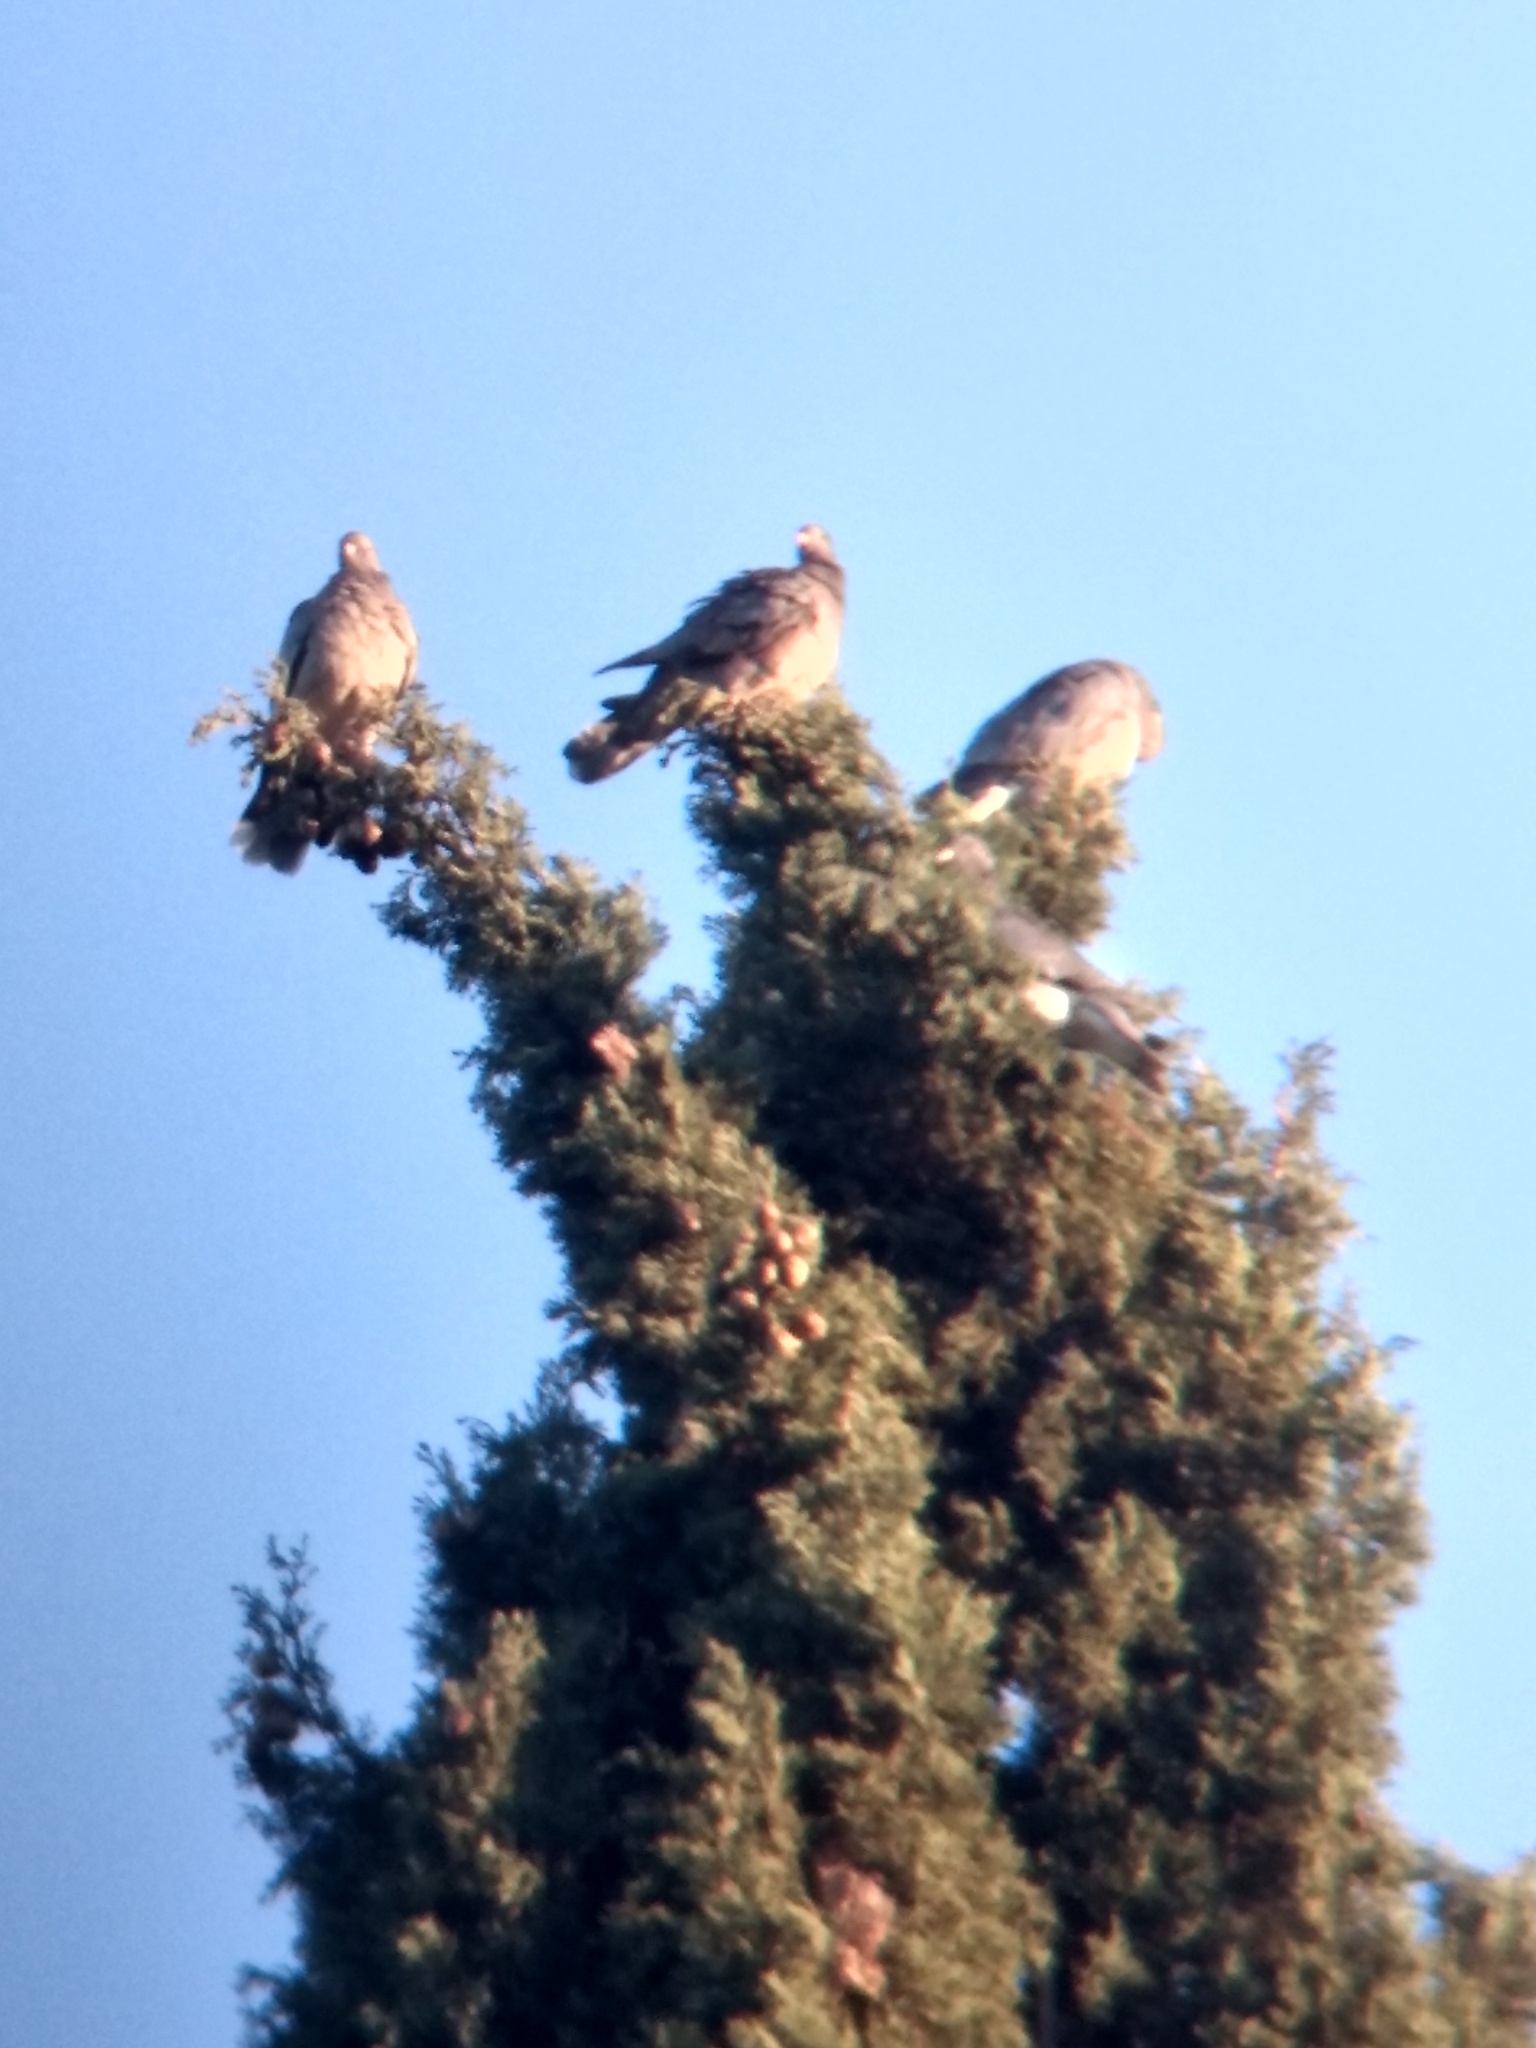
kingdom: Animalia
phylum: Chordata
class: Aves
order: Columbiformes
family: Columbidae
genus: Patagioenas
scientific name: Patagioenas fasciata
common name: Band-tailed pigeon
